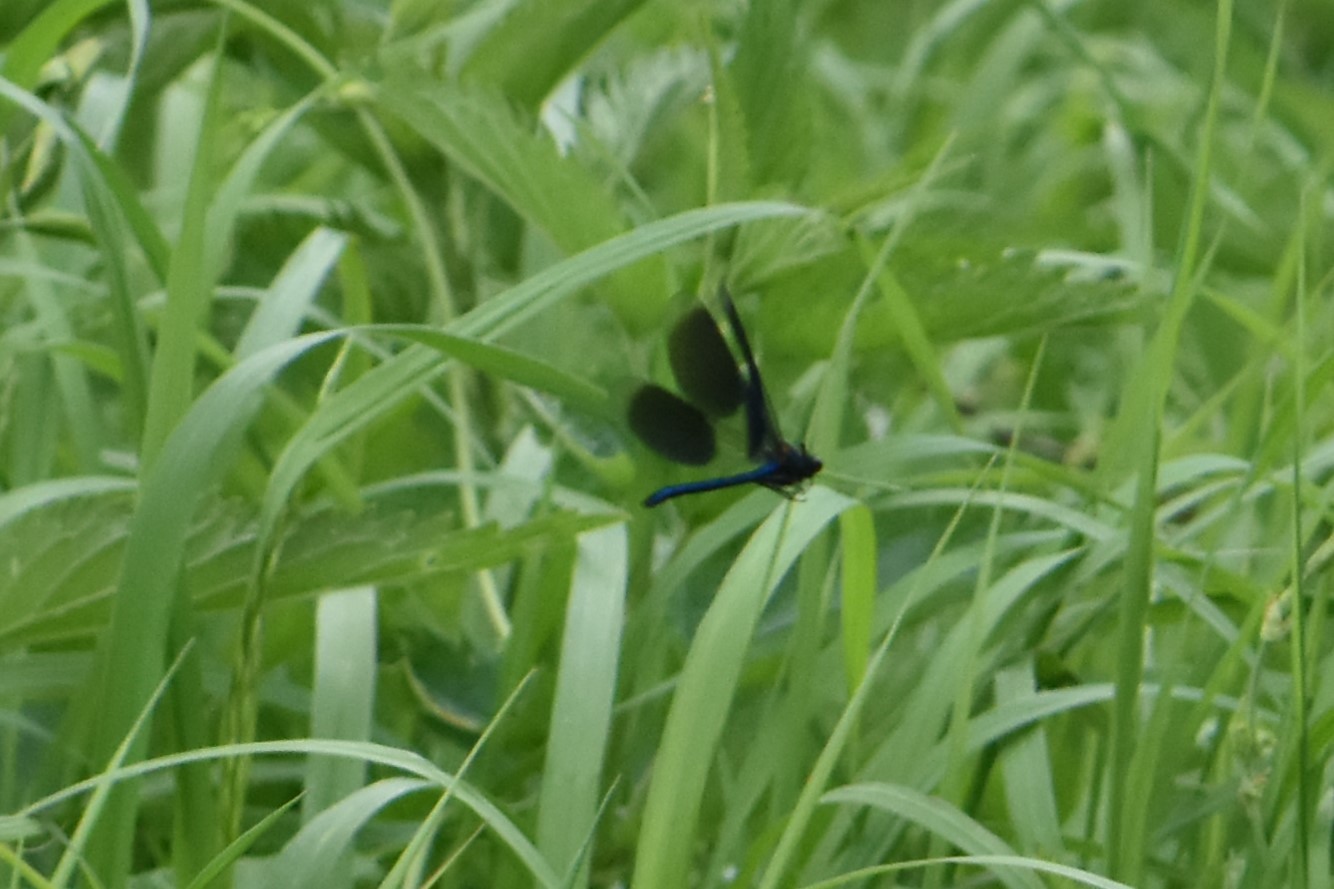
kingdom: Animalia
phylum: Arthropoda
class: Insecta
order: Odonata
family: Calopterygidae
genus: Calopteryx
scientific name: Calopteryx splendens
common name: Banded demoiselle
